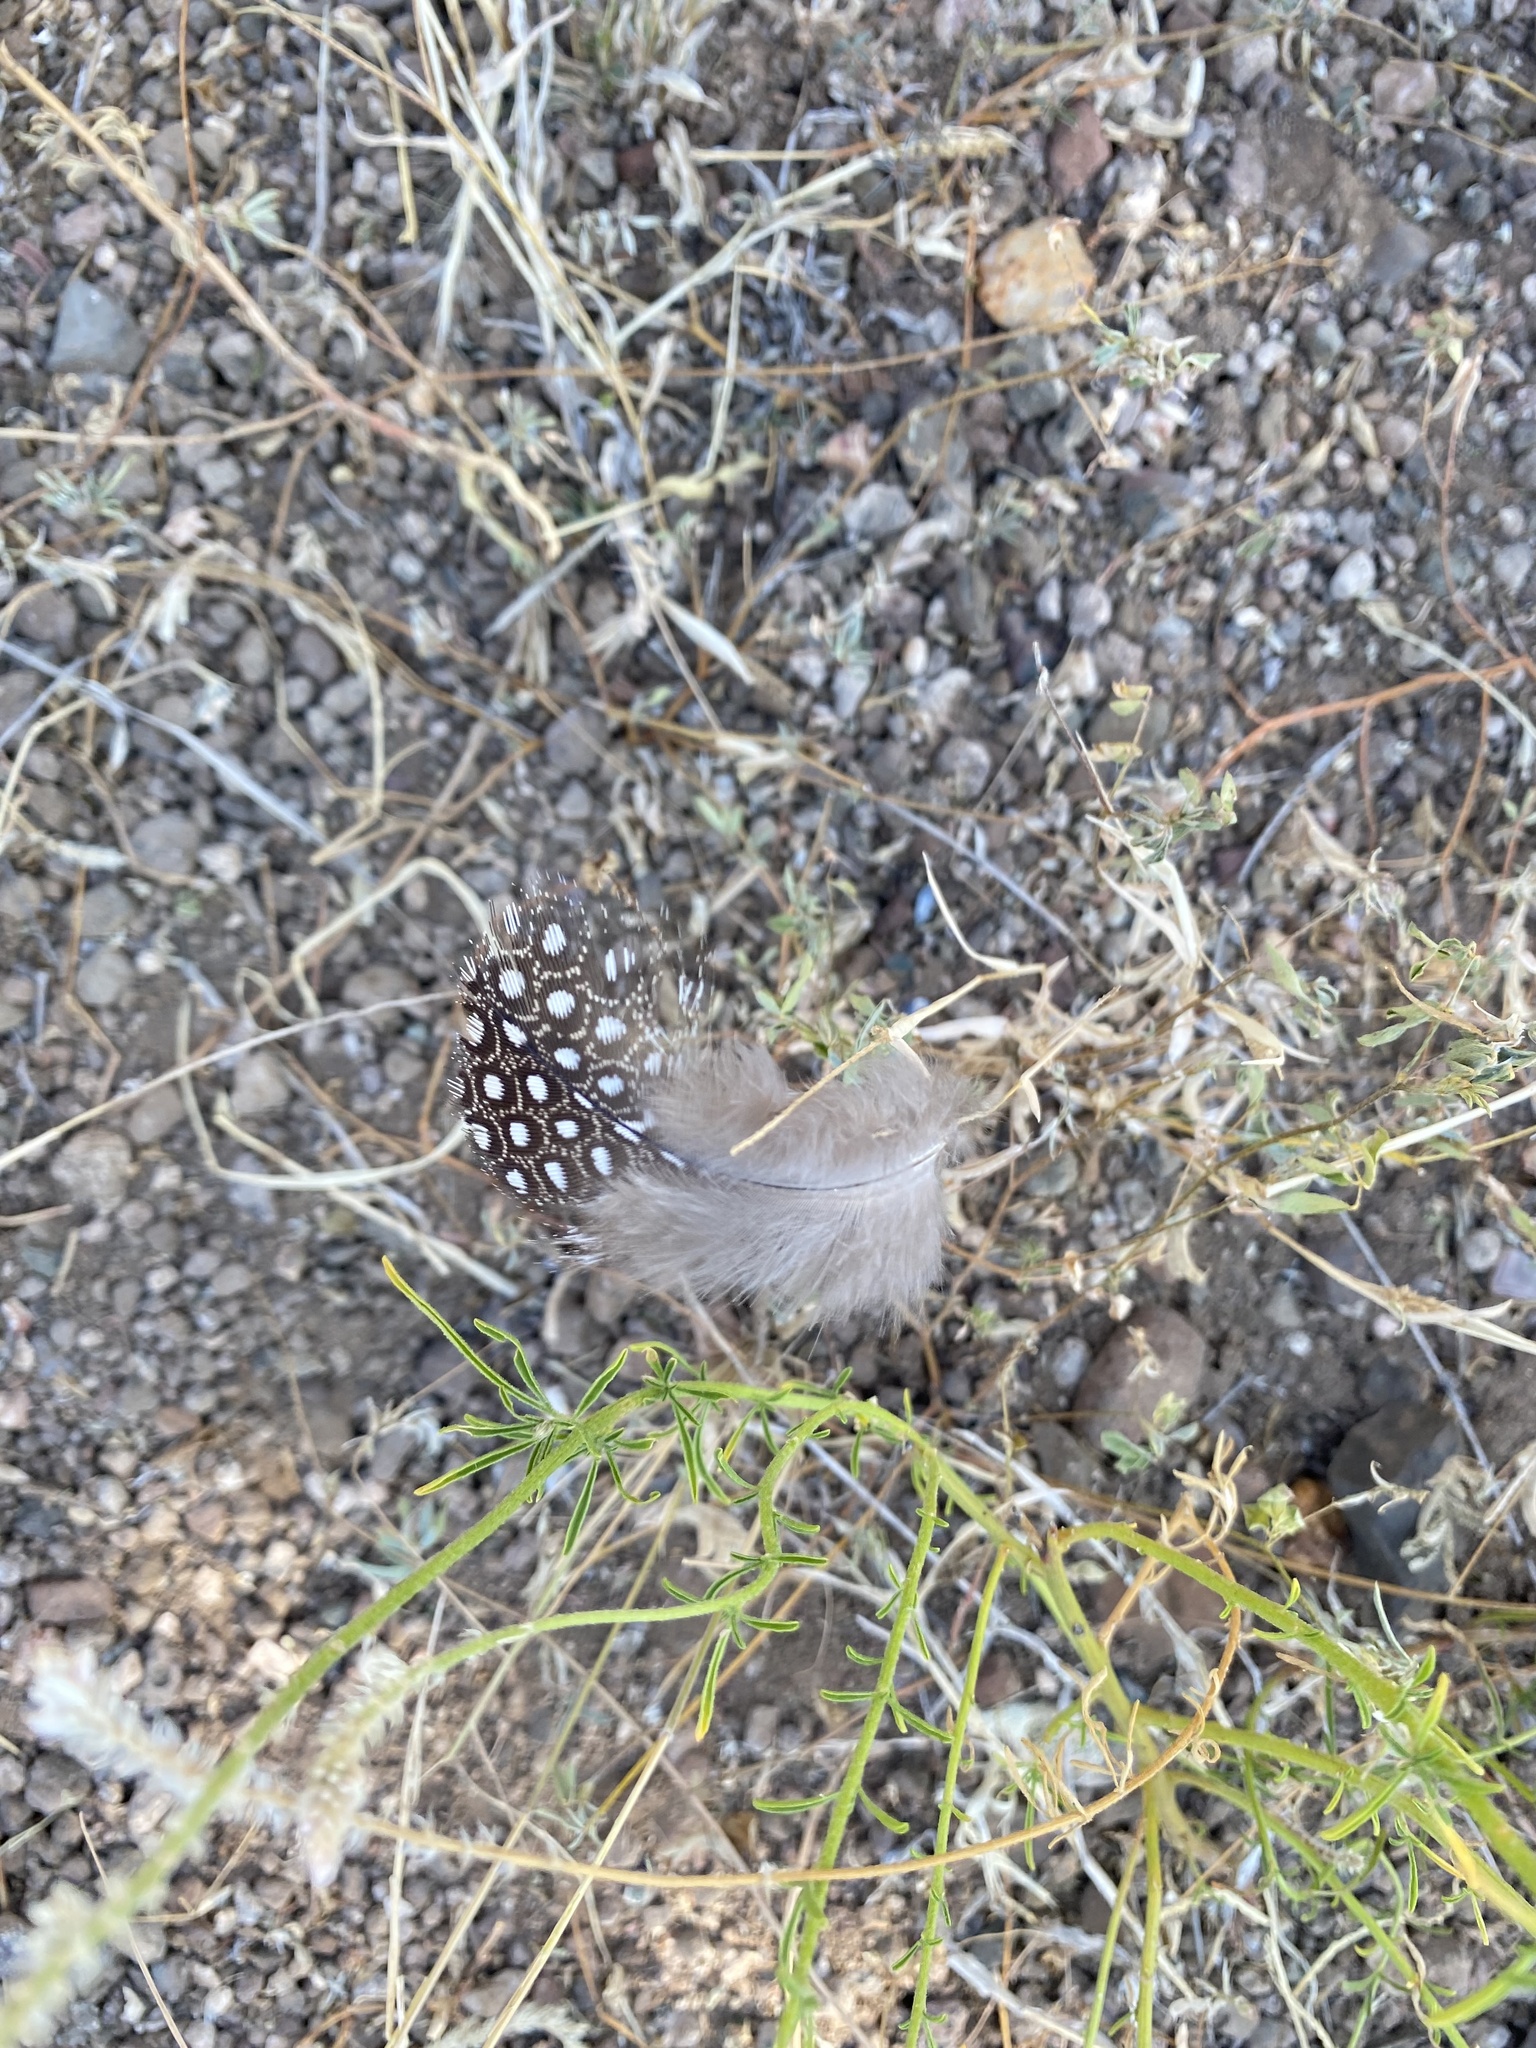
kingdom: Animalia
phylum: Chordata
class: Aves
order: Galliformes
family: Numididae
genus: Numida
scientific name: Numida meleagris
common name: Helmeted guineafowl
